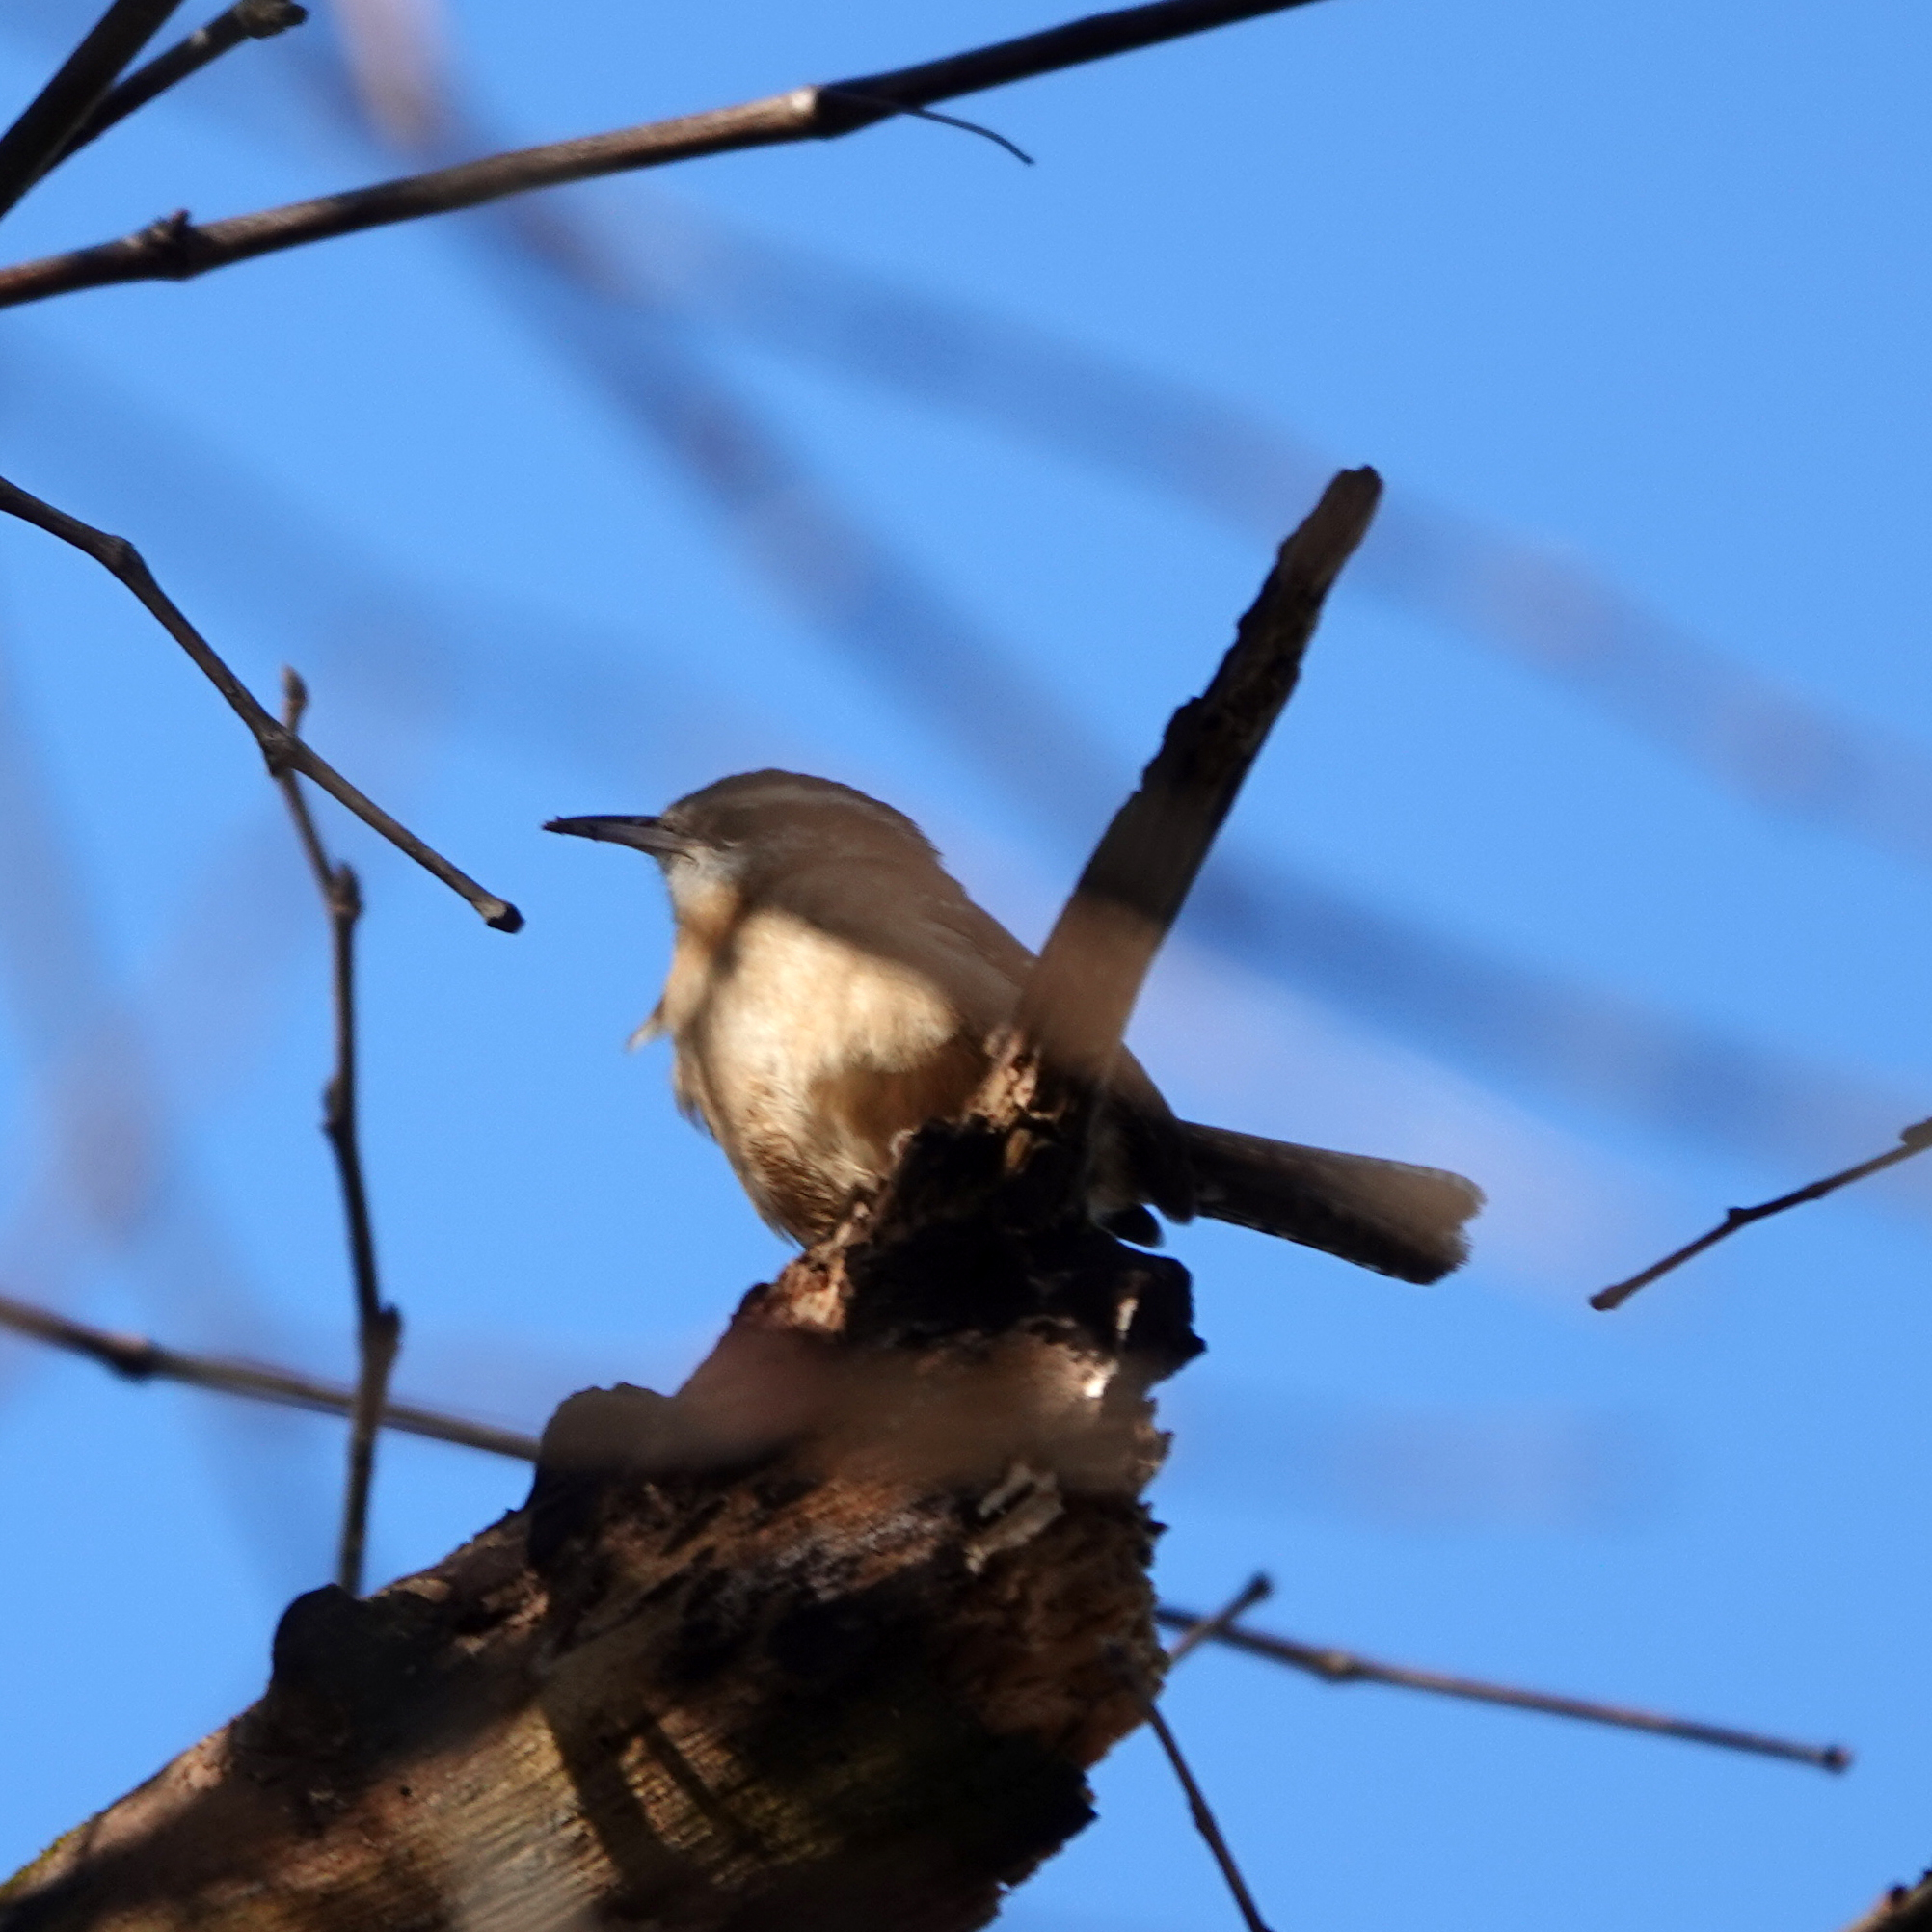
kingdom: Animalia
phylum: Chordata
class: Aves
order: Passeriformes
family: Troglodytidae
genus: Thryothorus
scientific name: Thryothorus ludovicianus
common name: Carolina wren
